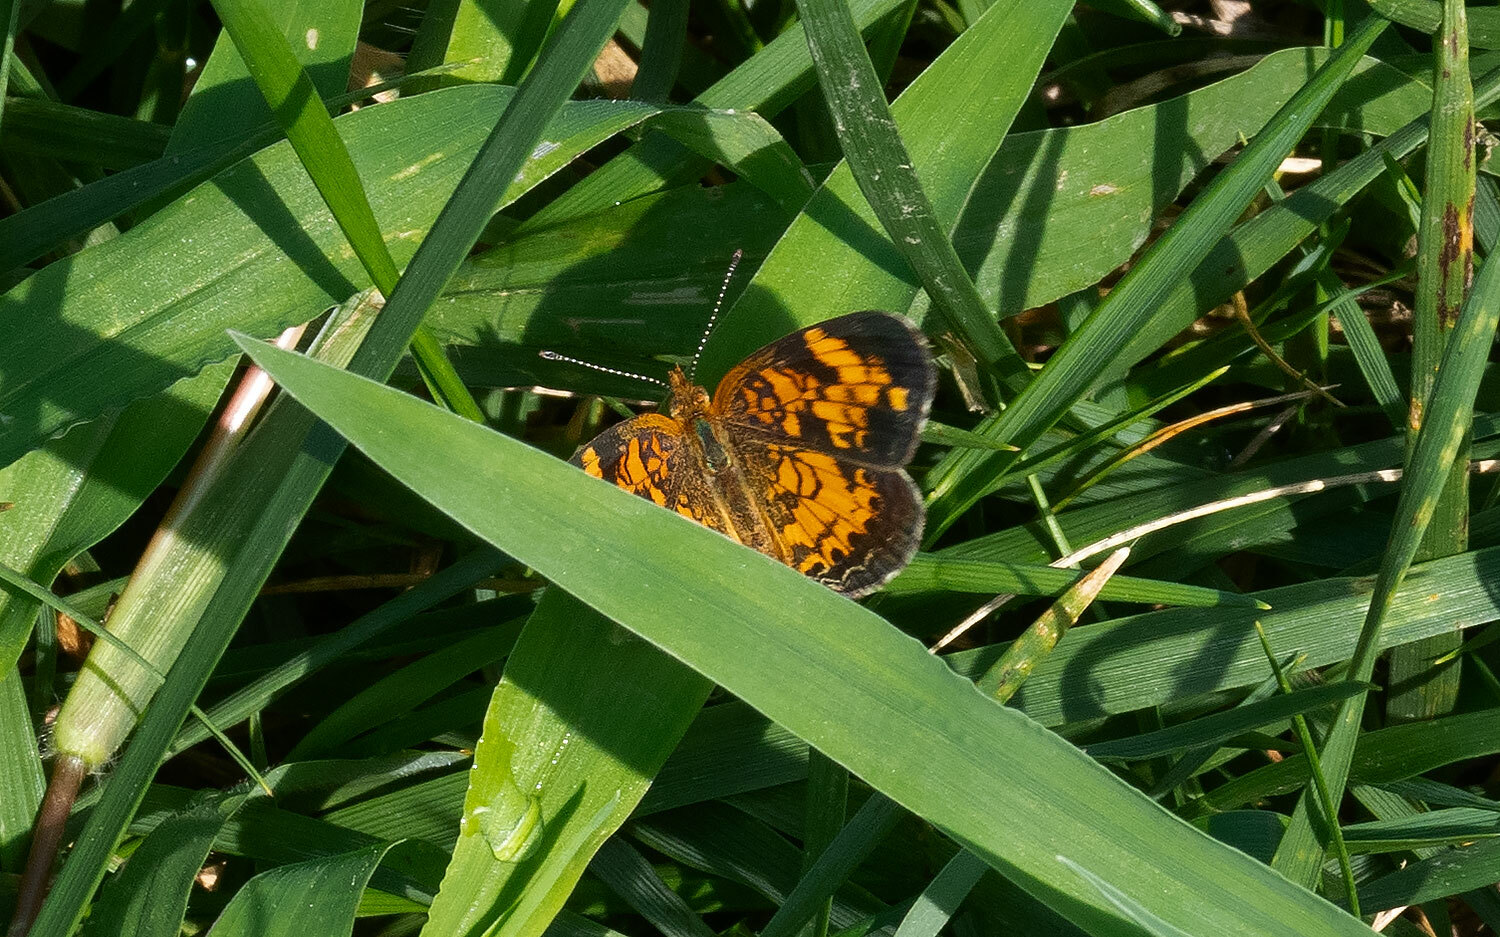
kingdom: Animalia
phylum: Arthropoda
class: Insecta
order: Lepidoptera
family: Nymphalidae
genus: Phyciodes
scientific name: Phyciodes tharos
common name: Pearl crescent
